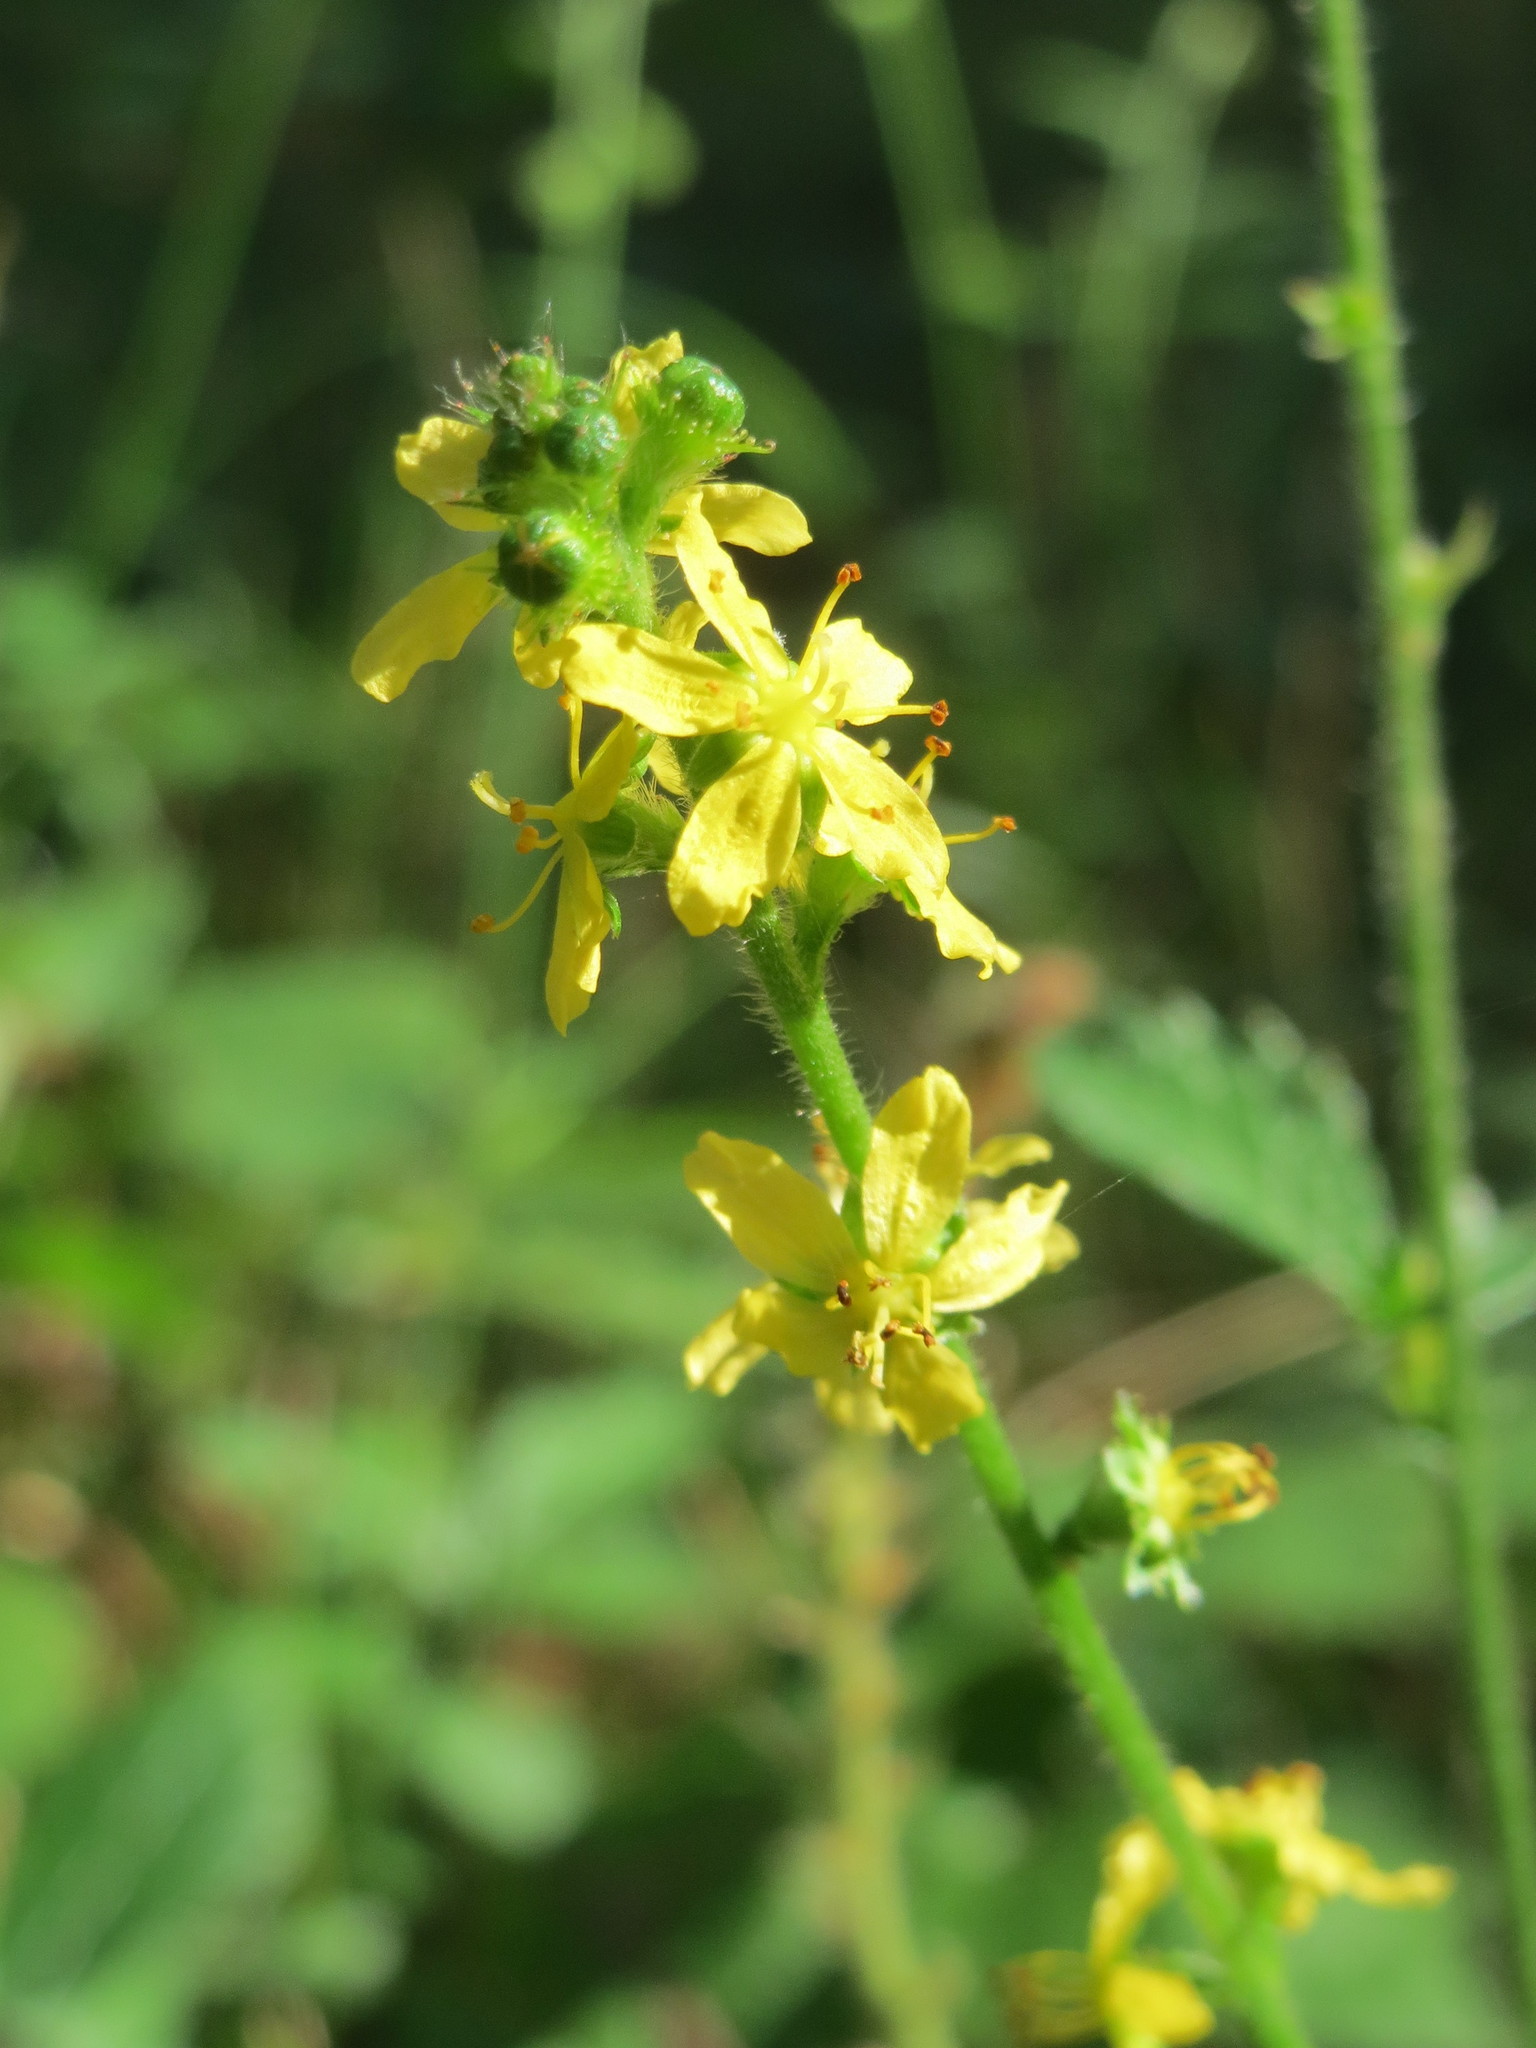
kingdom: Plantae
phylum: Tracheophyta
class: Magnoliopsida
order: Rosales
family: Rosaceae
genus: Agrimonia
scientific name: Agrimonia eupatoria
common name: Agrimony
